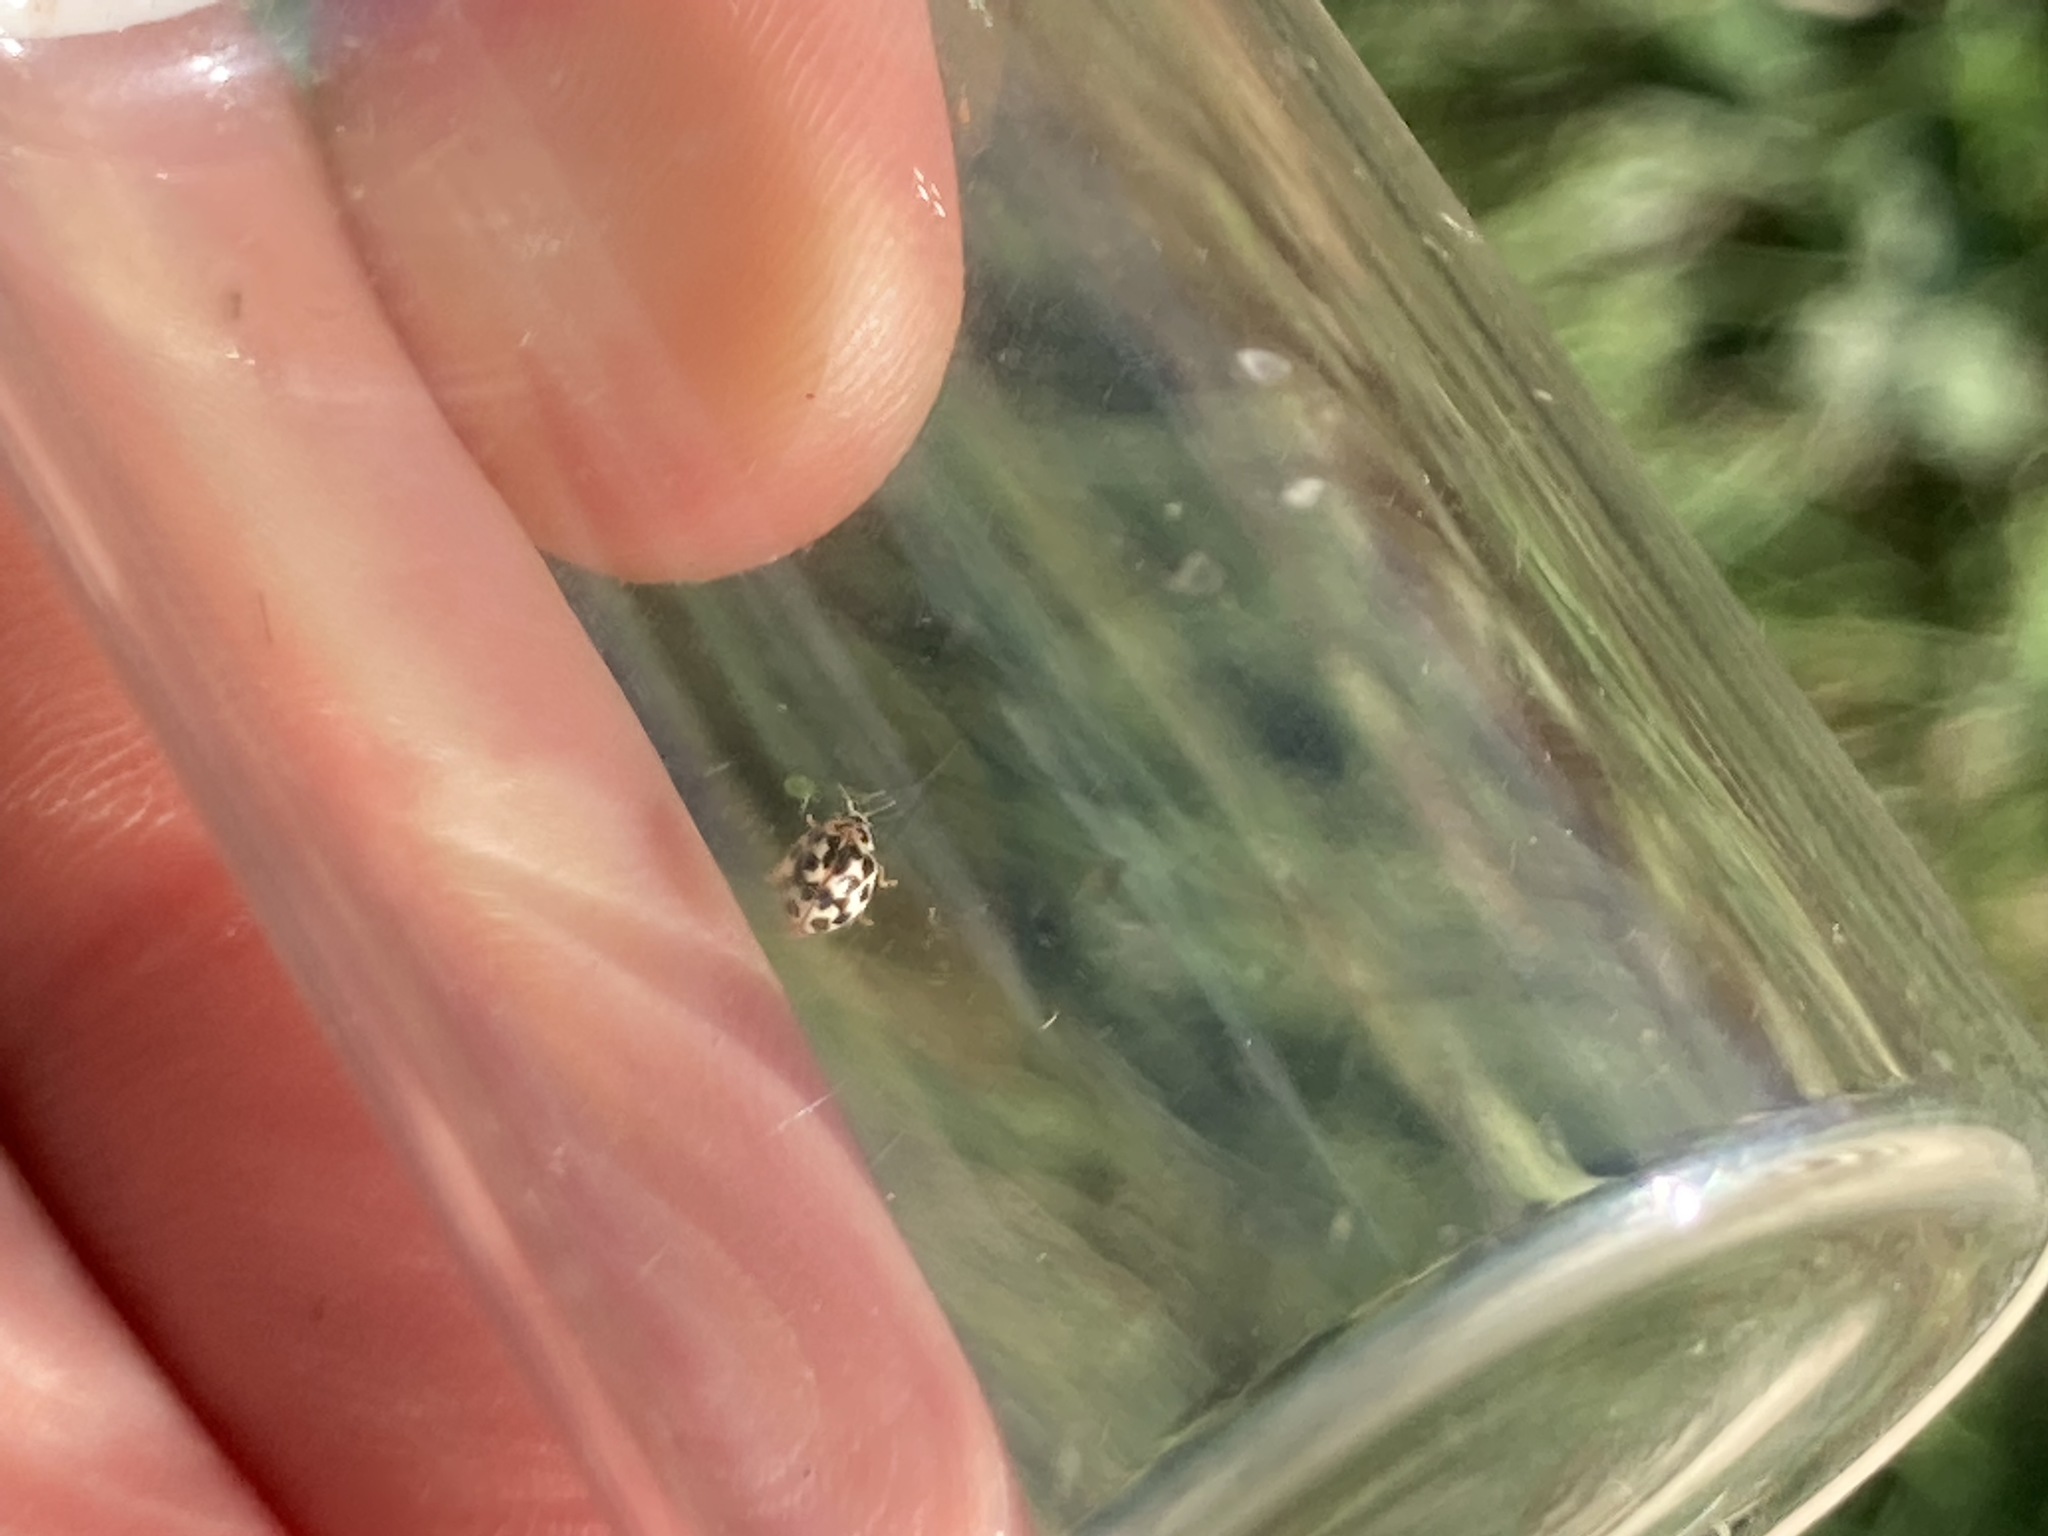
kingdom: Animalia
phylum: Arthropoda
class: Insecta
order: Coleoptera
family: Coccinellidae
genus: Psyllobora
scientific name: Psyllobora vigintimaculata
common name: Ladybird beetle
